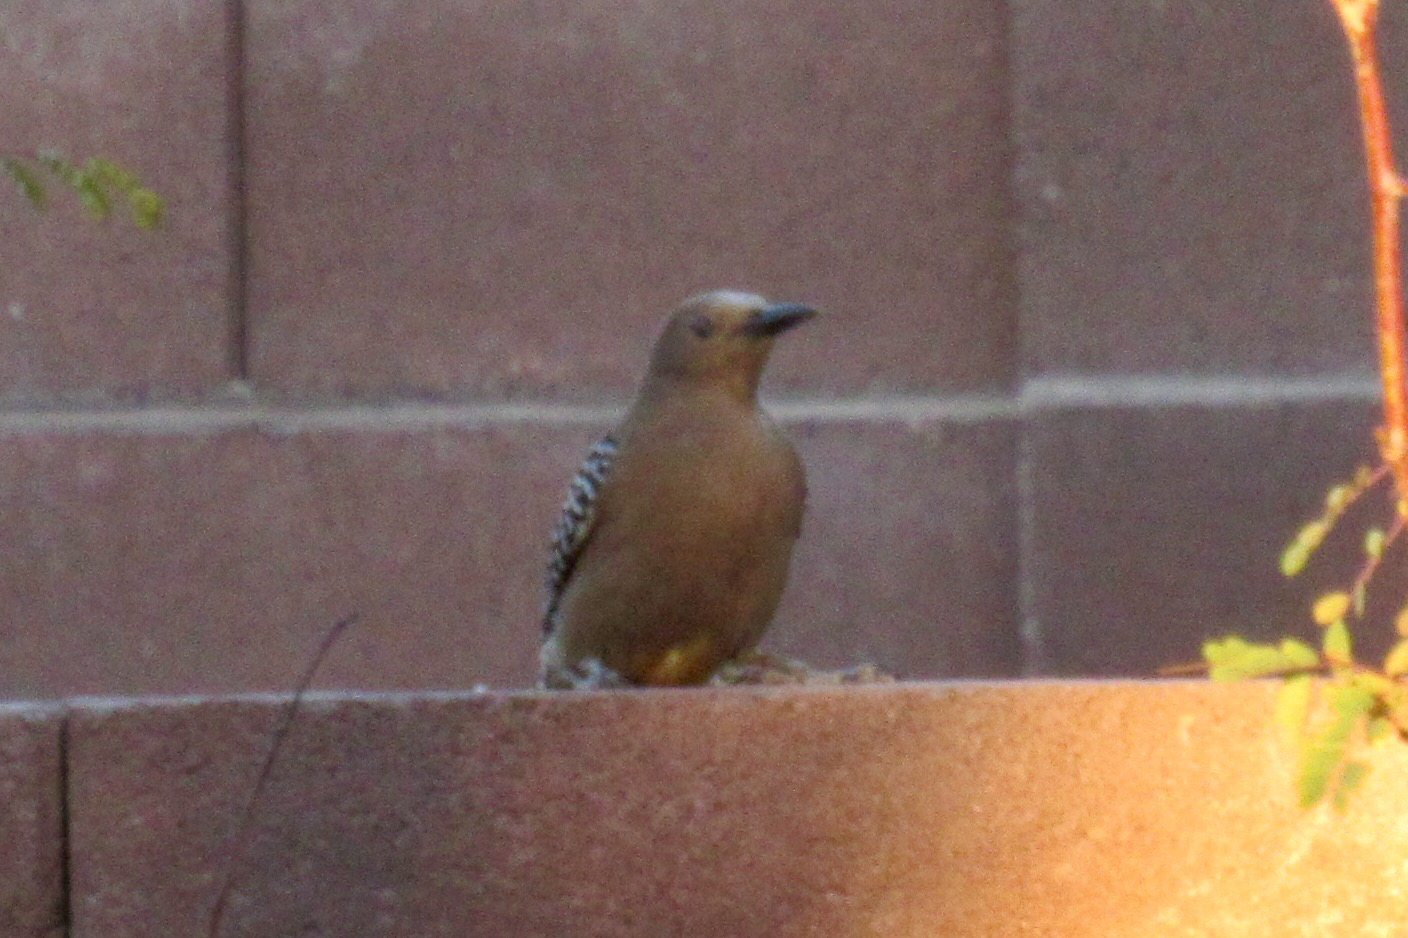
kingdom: Animalia
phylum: Chordata
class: Aves
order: Piciformes
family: Picidae
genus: Melanerpes
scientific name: Melanerpes uropygialis
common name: Gila woodpecker
